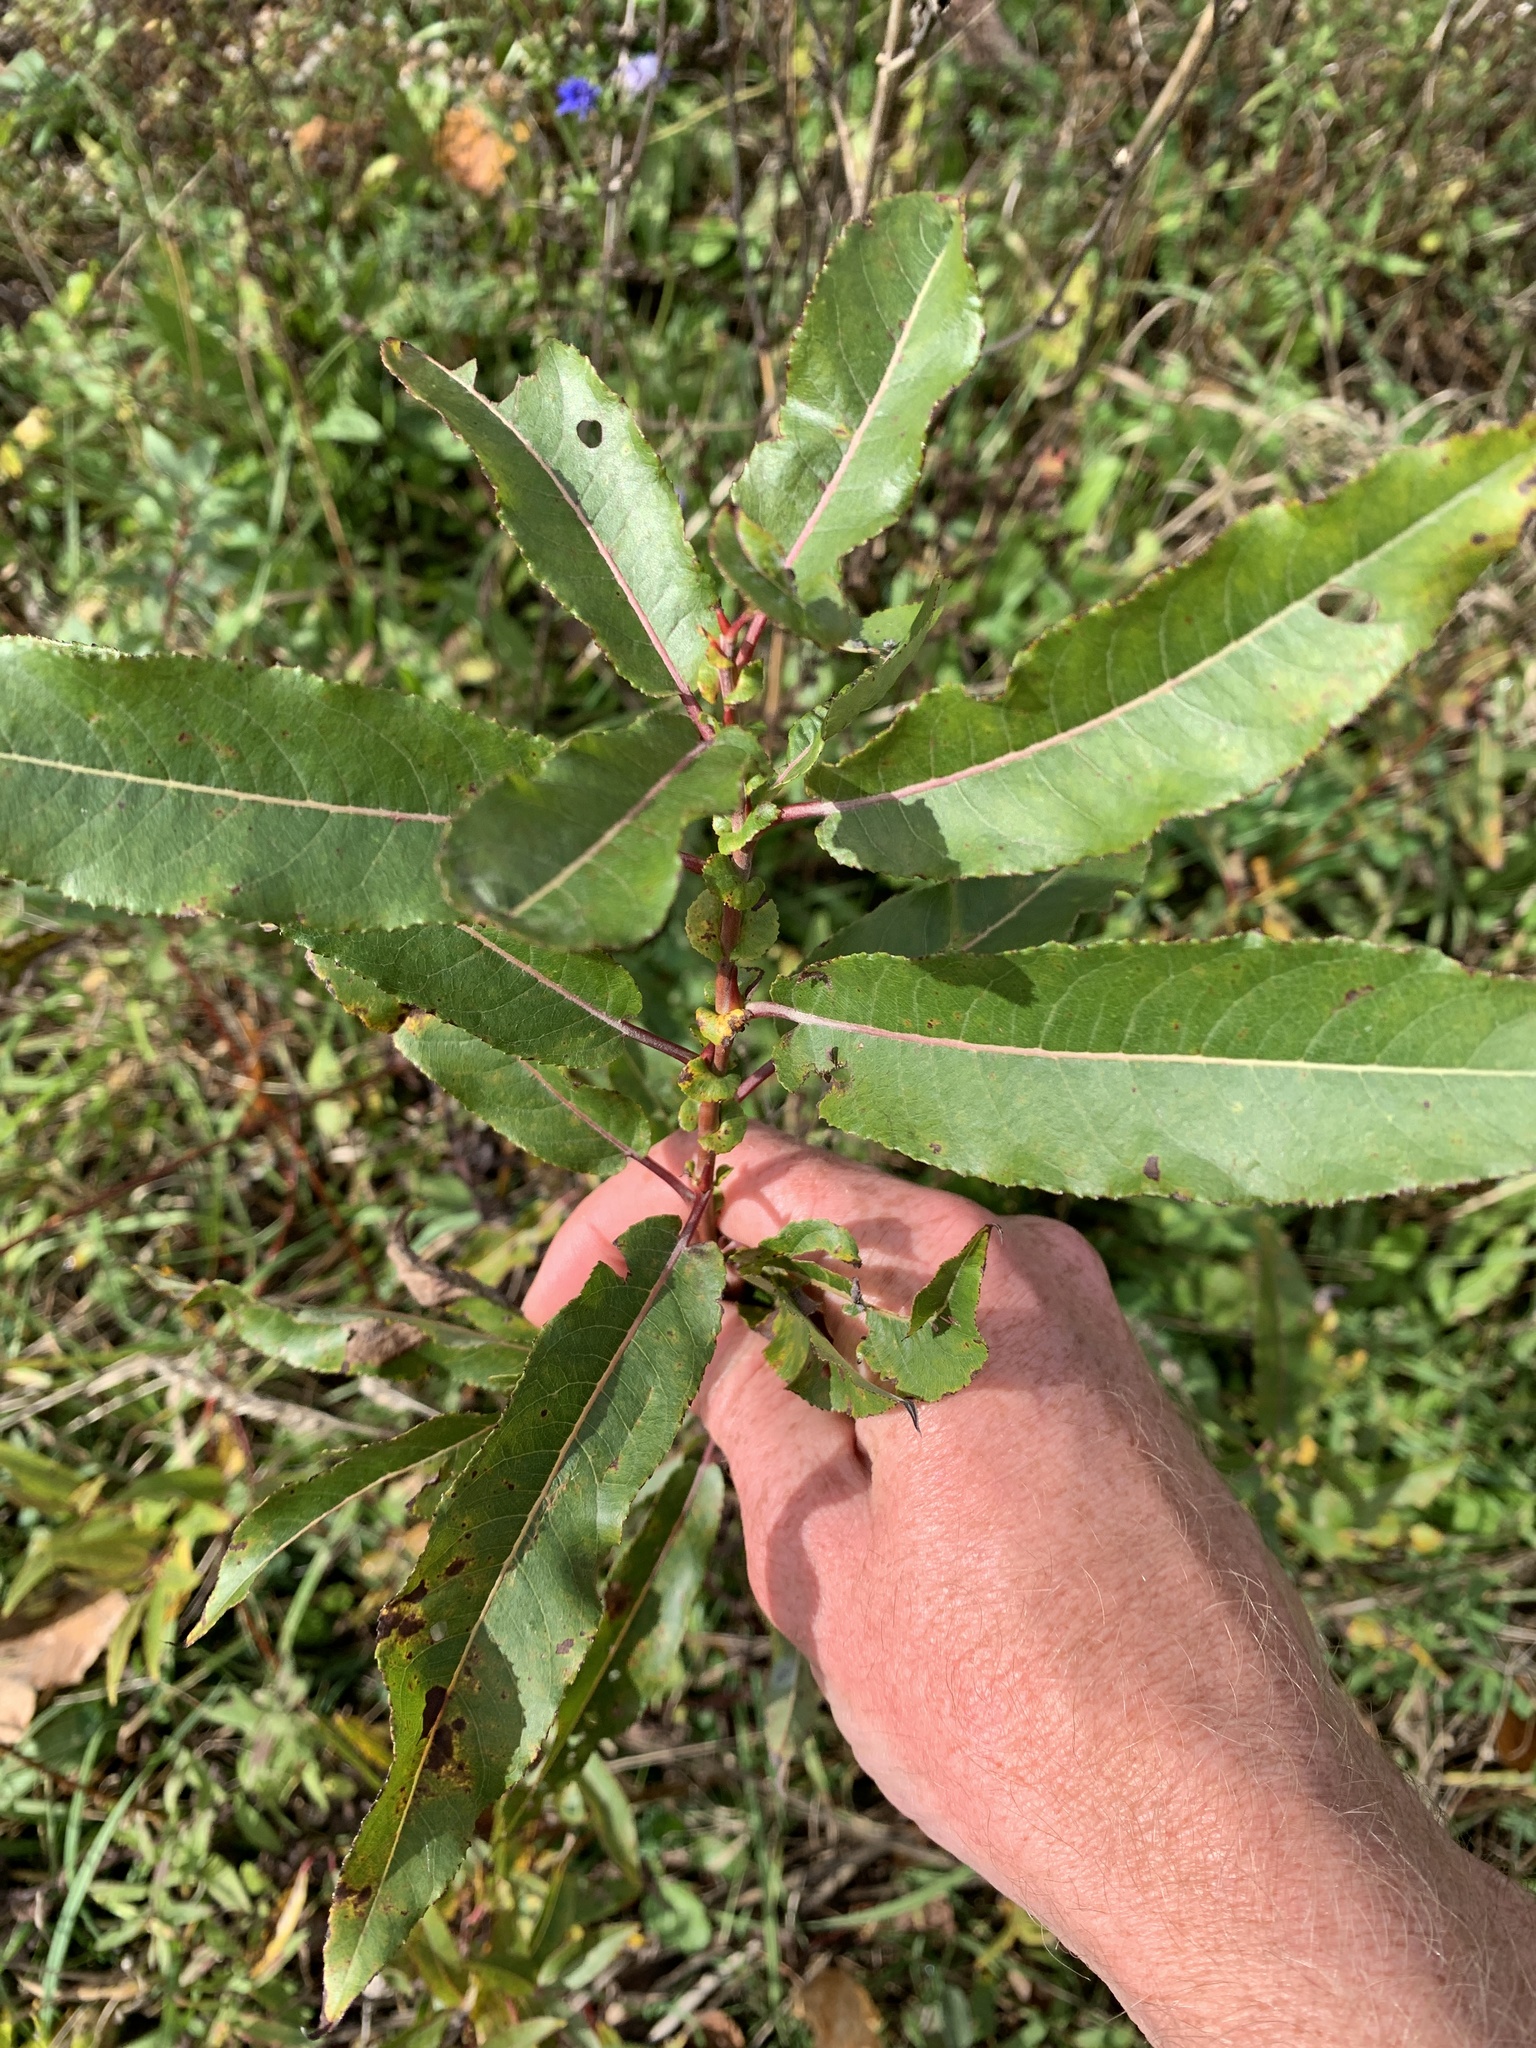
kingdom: Plantae
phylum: Tracheophyta
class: Magnoliopsida
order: Malpighiales
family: Salicaceae
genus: Salix
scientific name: Salix eriocephala
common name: Heart-leaved willow
